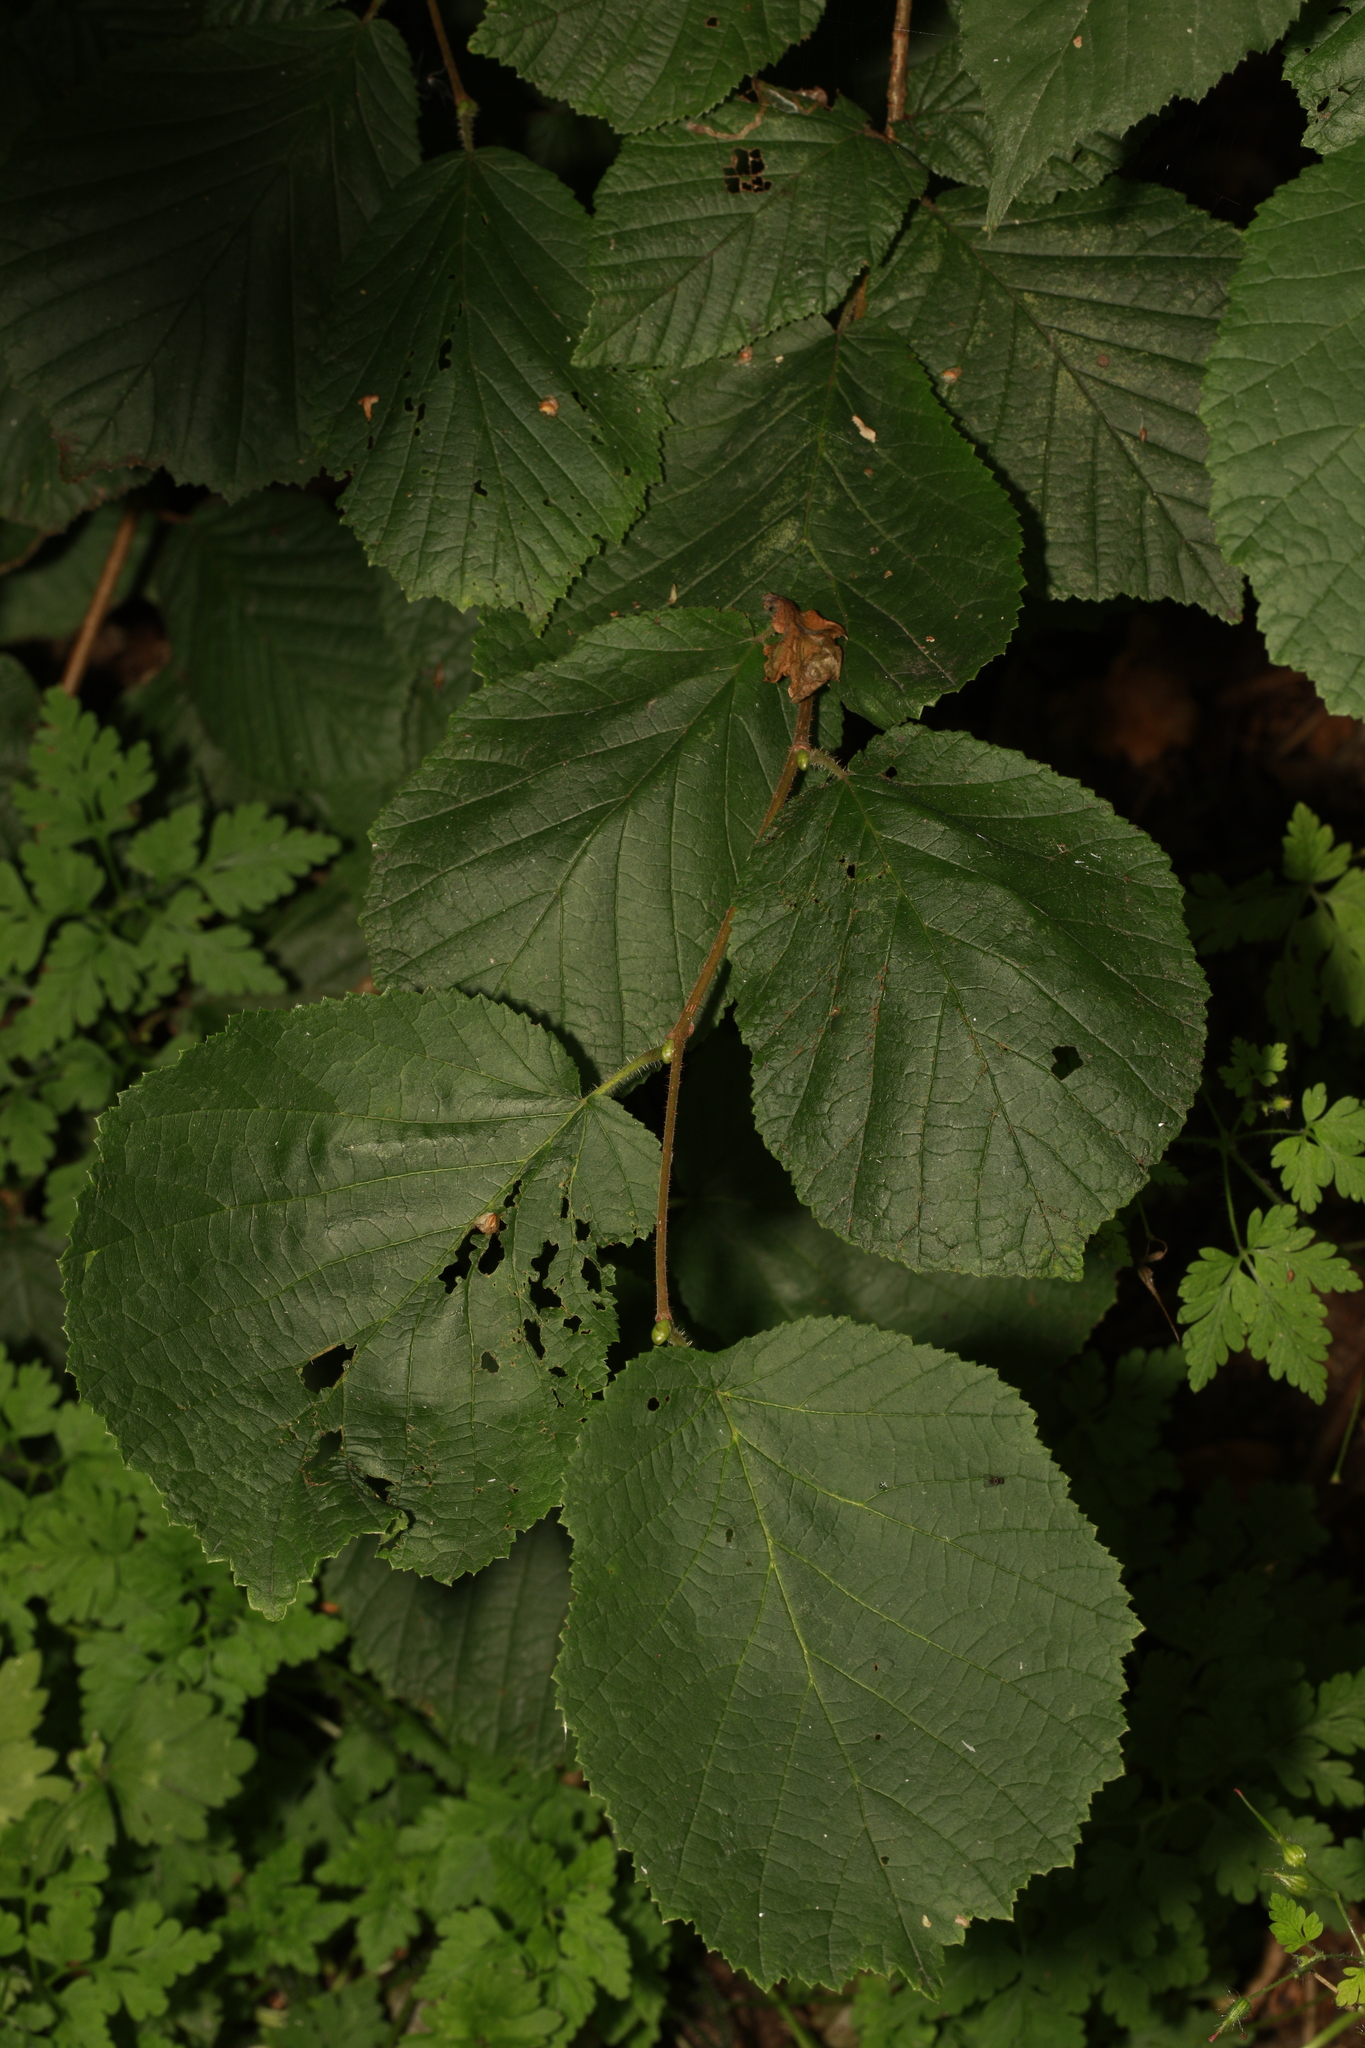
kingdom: Plantae
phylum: Tracheophyta
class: Magnoliopsida
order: Fagales
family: Betulaceae
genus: Corylus
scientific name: Corylus avellana
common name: European hazel
